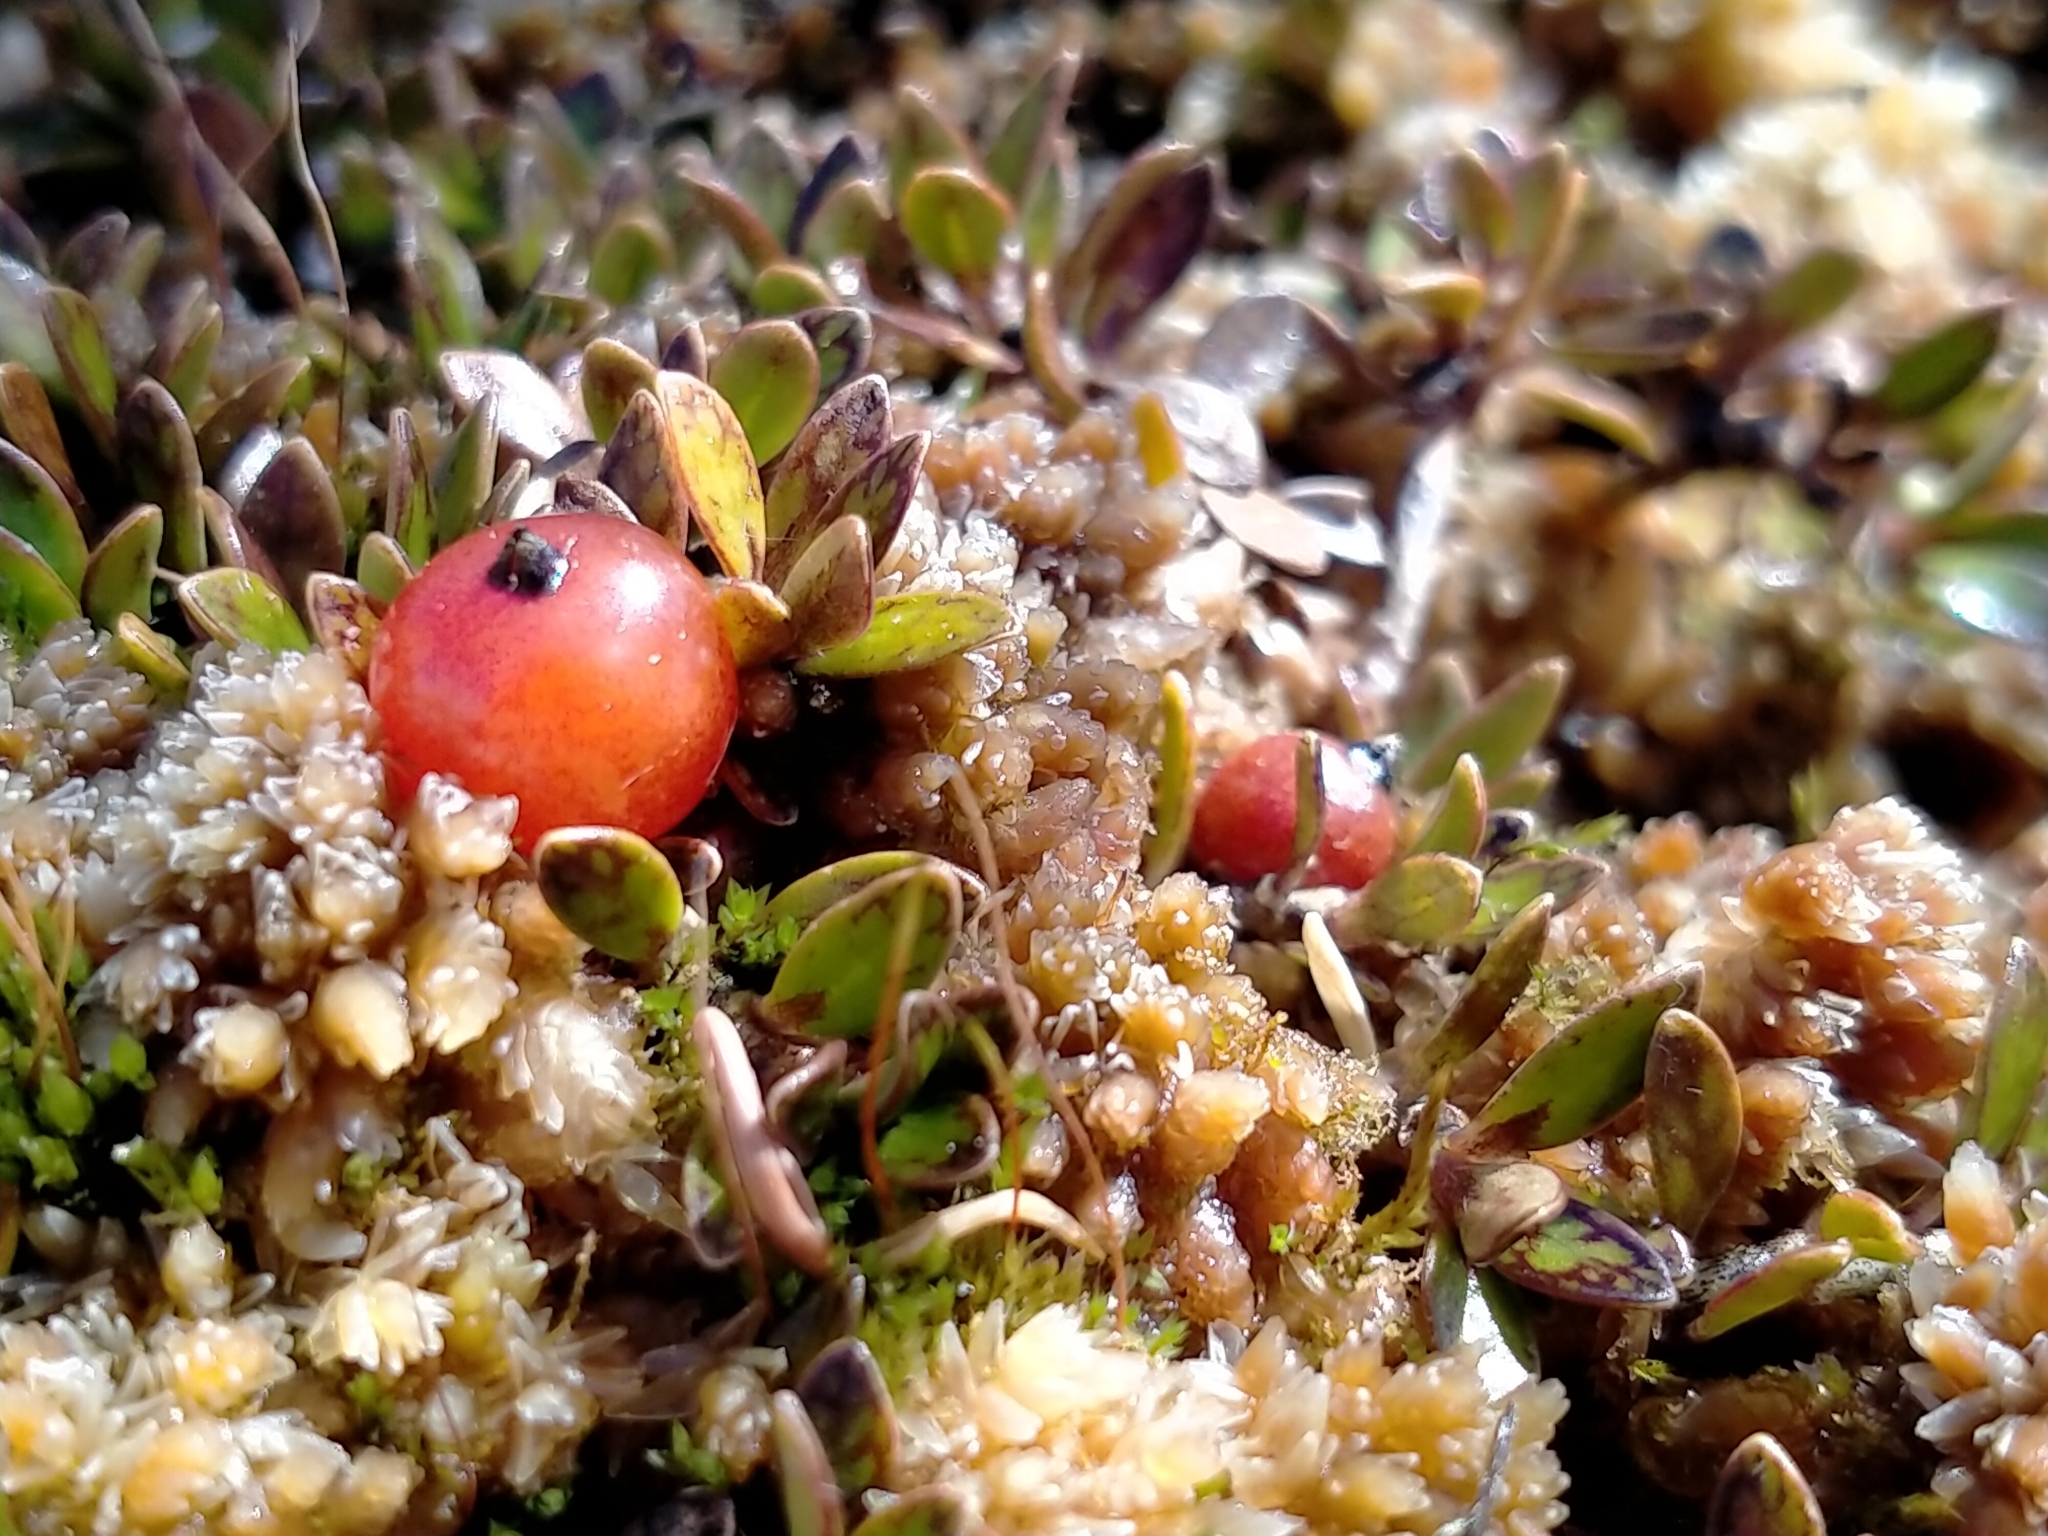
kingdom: Plantae
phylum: Tracheophyta
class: Magnoliopsida
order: Gentianales
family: Rubiaceae
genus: Coprosma
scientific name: Coprosma perpusilla
